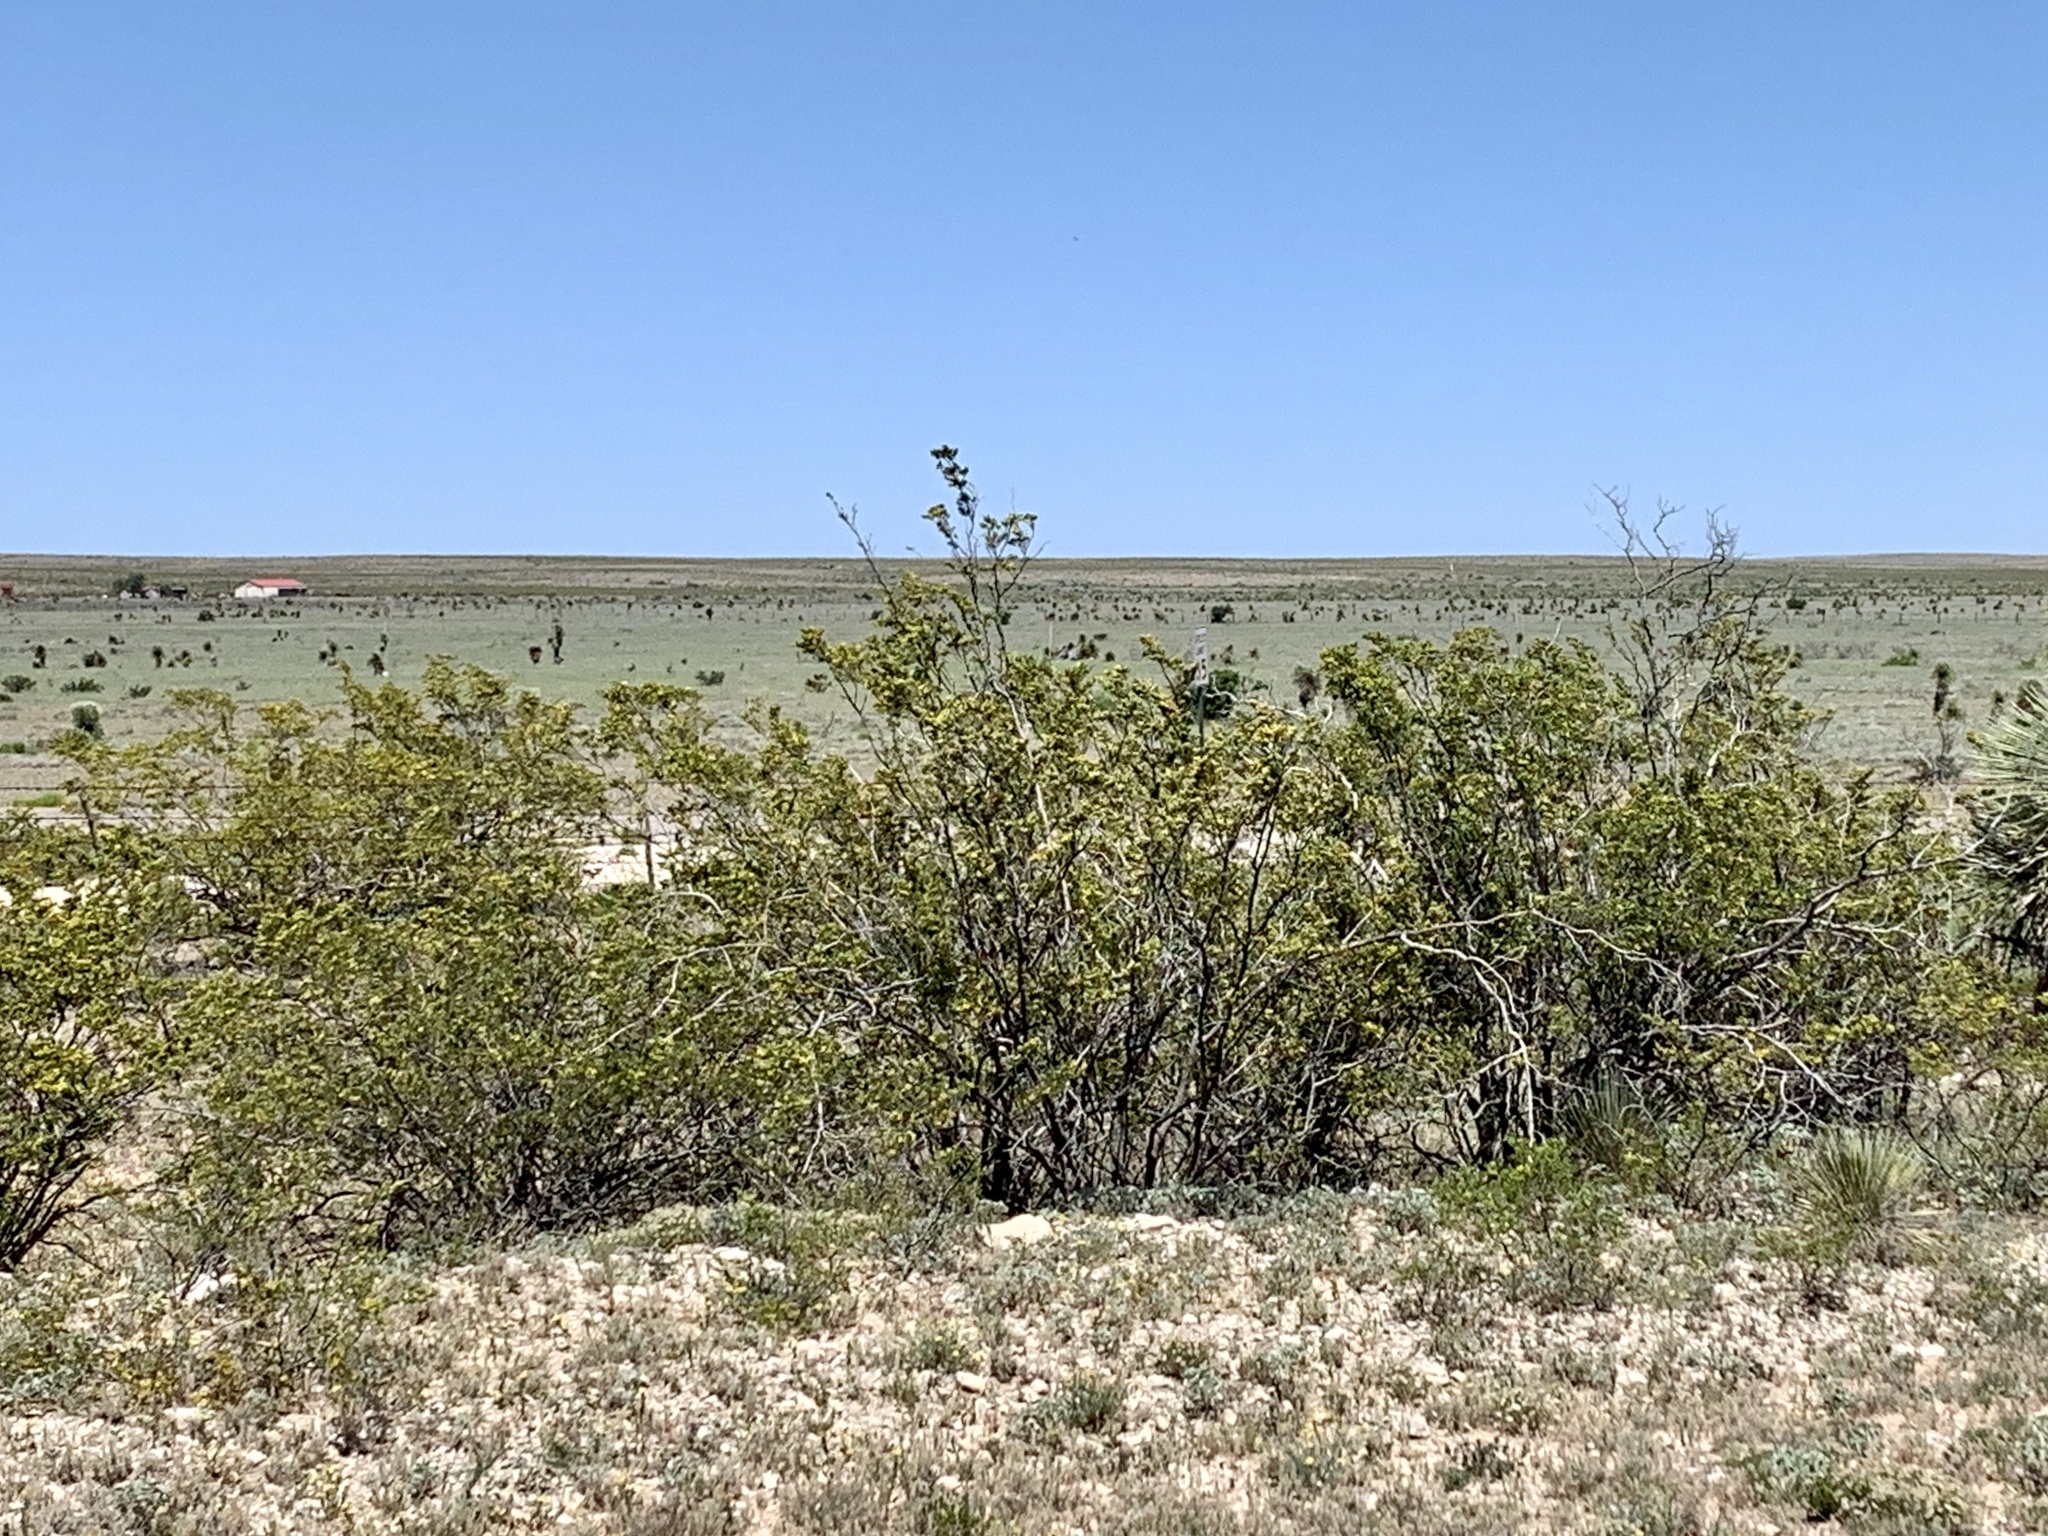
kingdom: Plantae
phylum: Tracheophyta
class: Magnoliopsida
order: Zygophyllales
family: Zygophyllaceae
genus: Larrea
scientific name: Larrea tridentata
